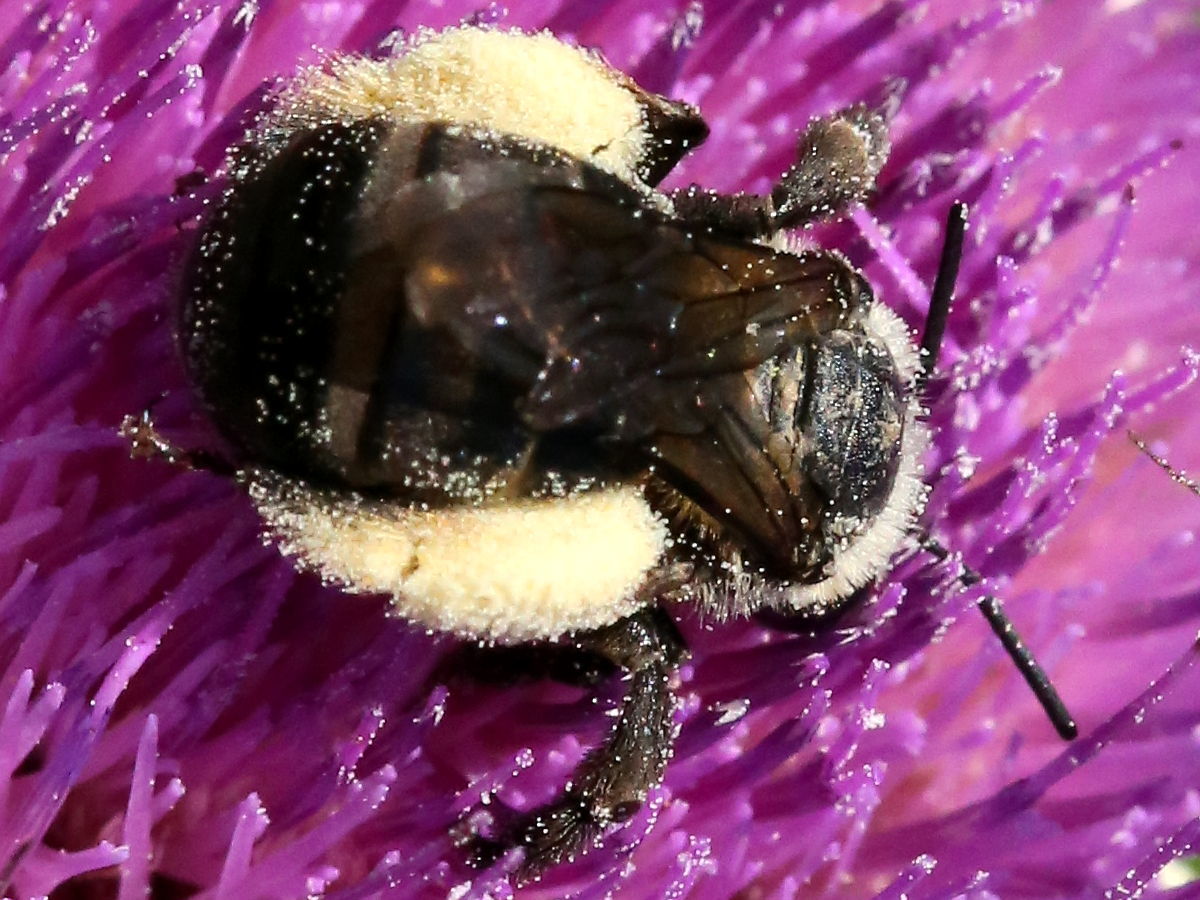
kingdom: Animalia
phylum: Arthropoda
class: Insecta
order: Hymenoptera
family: Apidae
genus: Melissodes
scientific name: Melissodes desponsus
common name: Thistle long-horned bee
